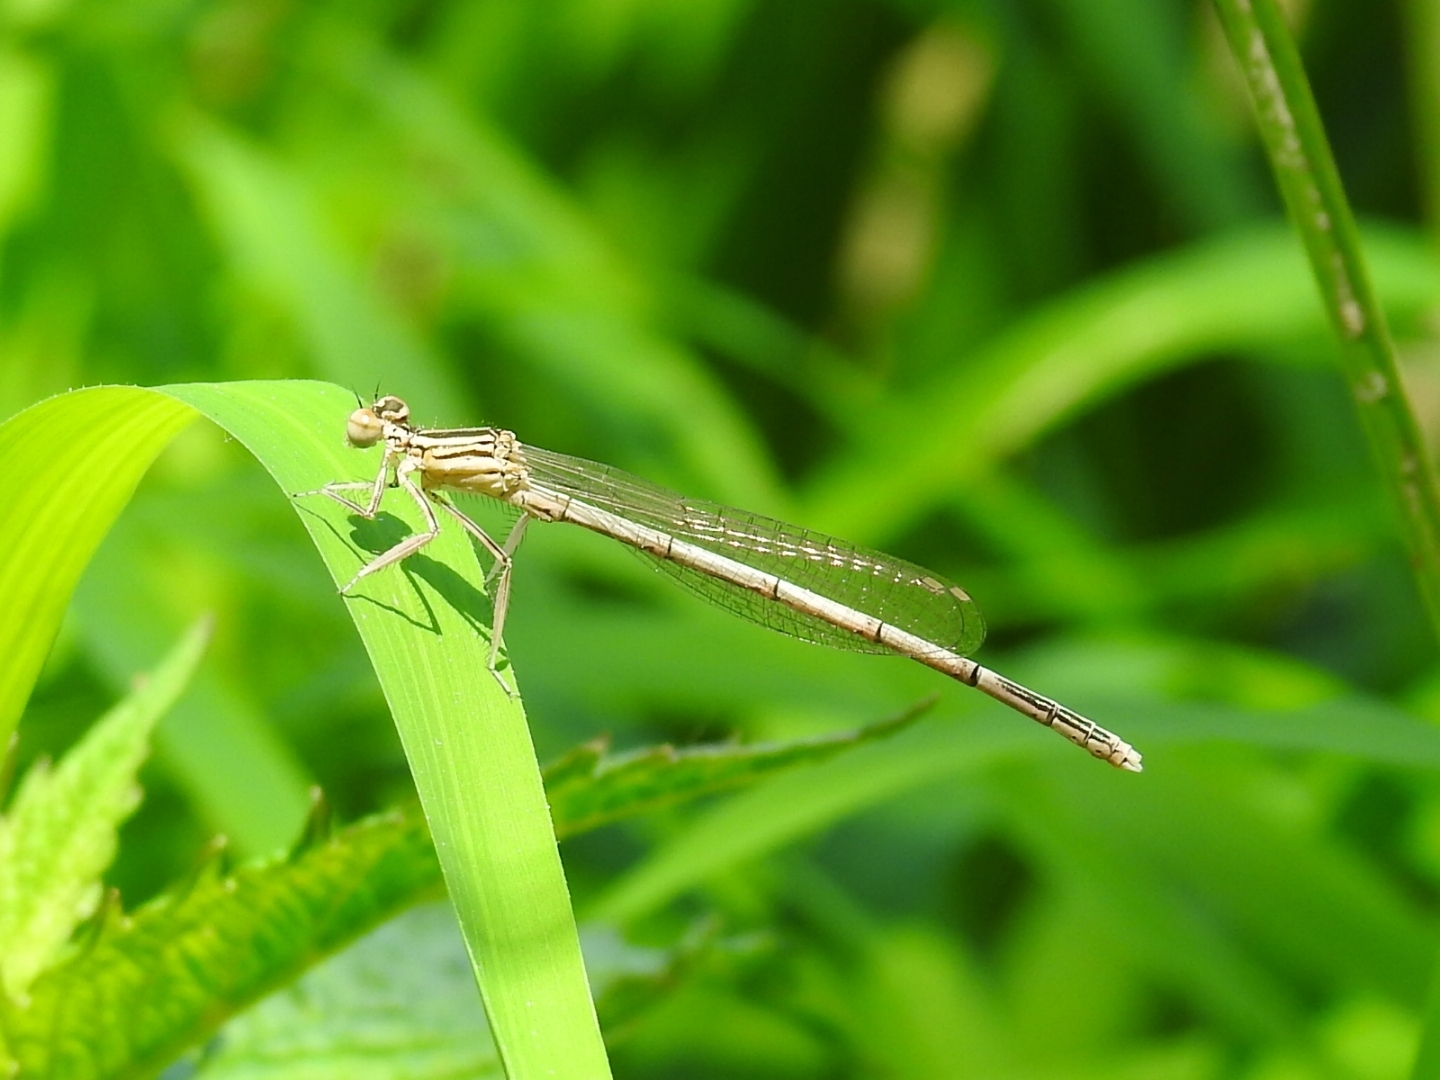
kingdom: Animalia
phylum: Arthropoda
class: Insecta
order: Odonata
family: Platycnemididae
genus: Platycnemis
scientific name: Platycnemis pennipes
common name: White-legged damselfly
